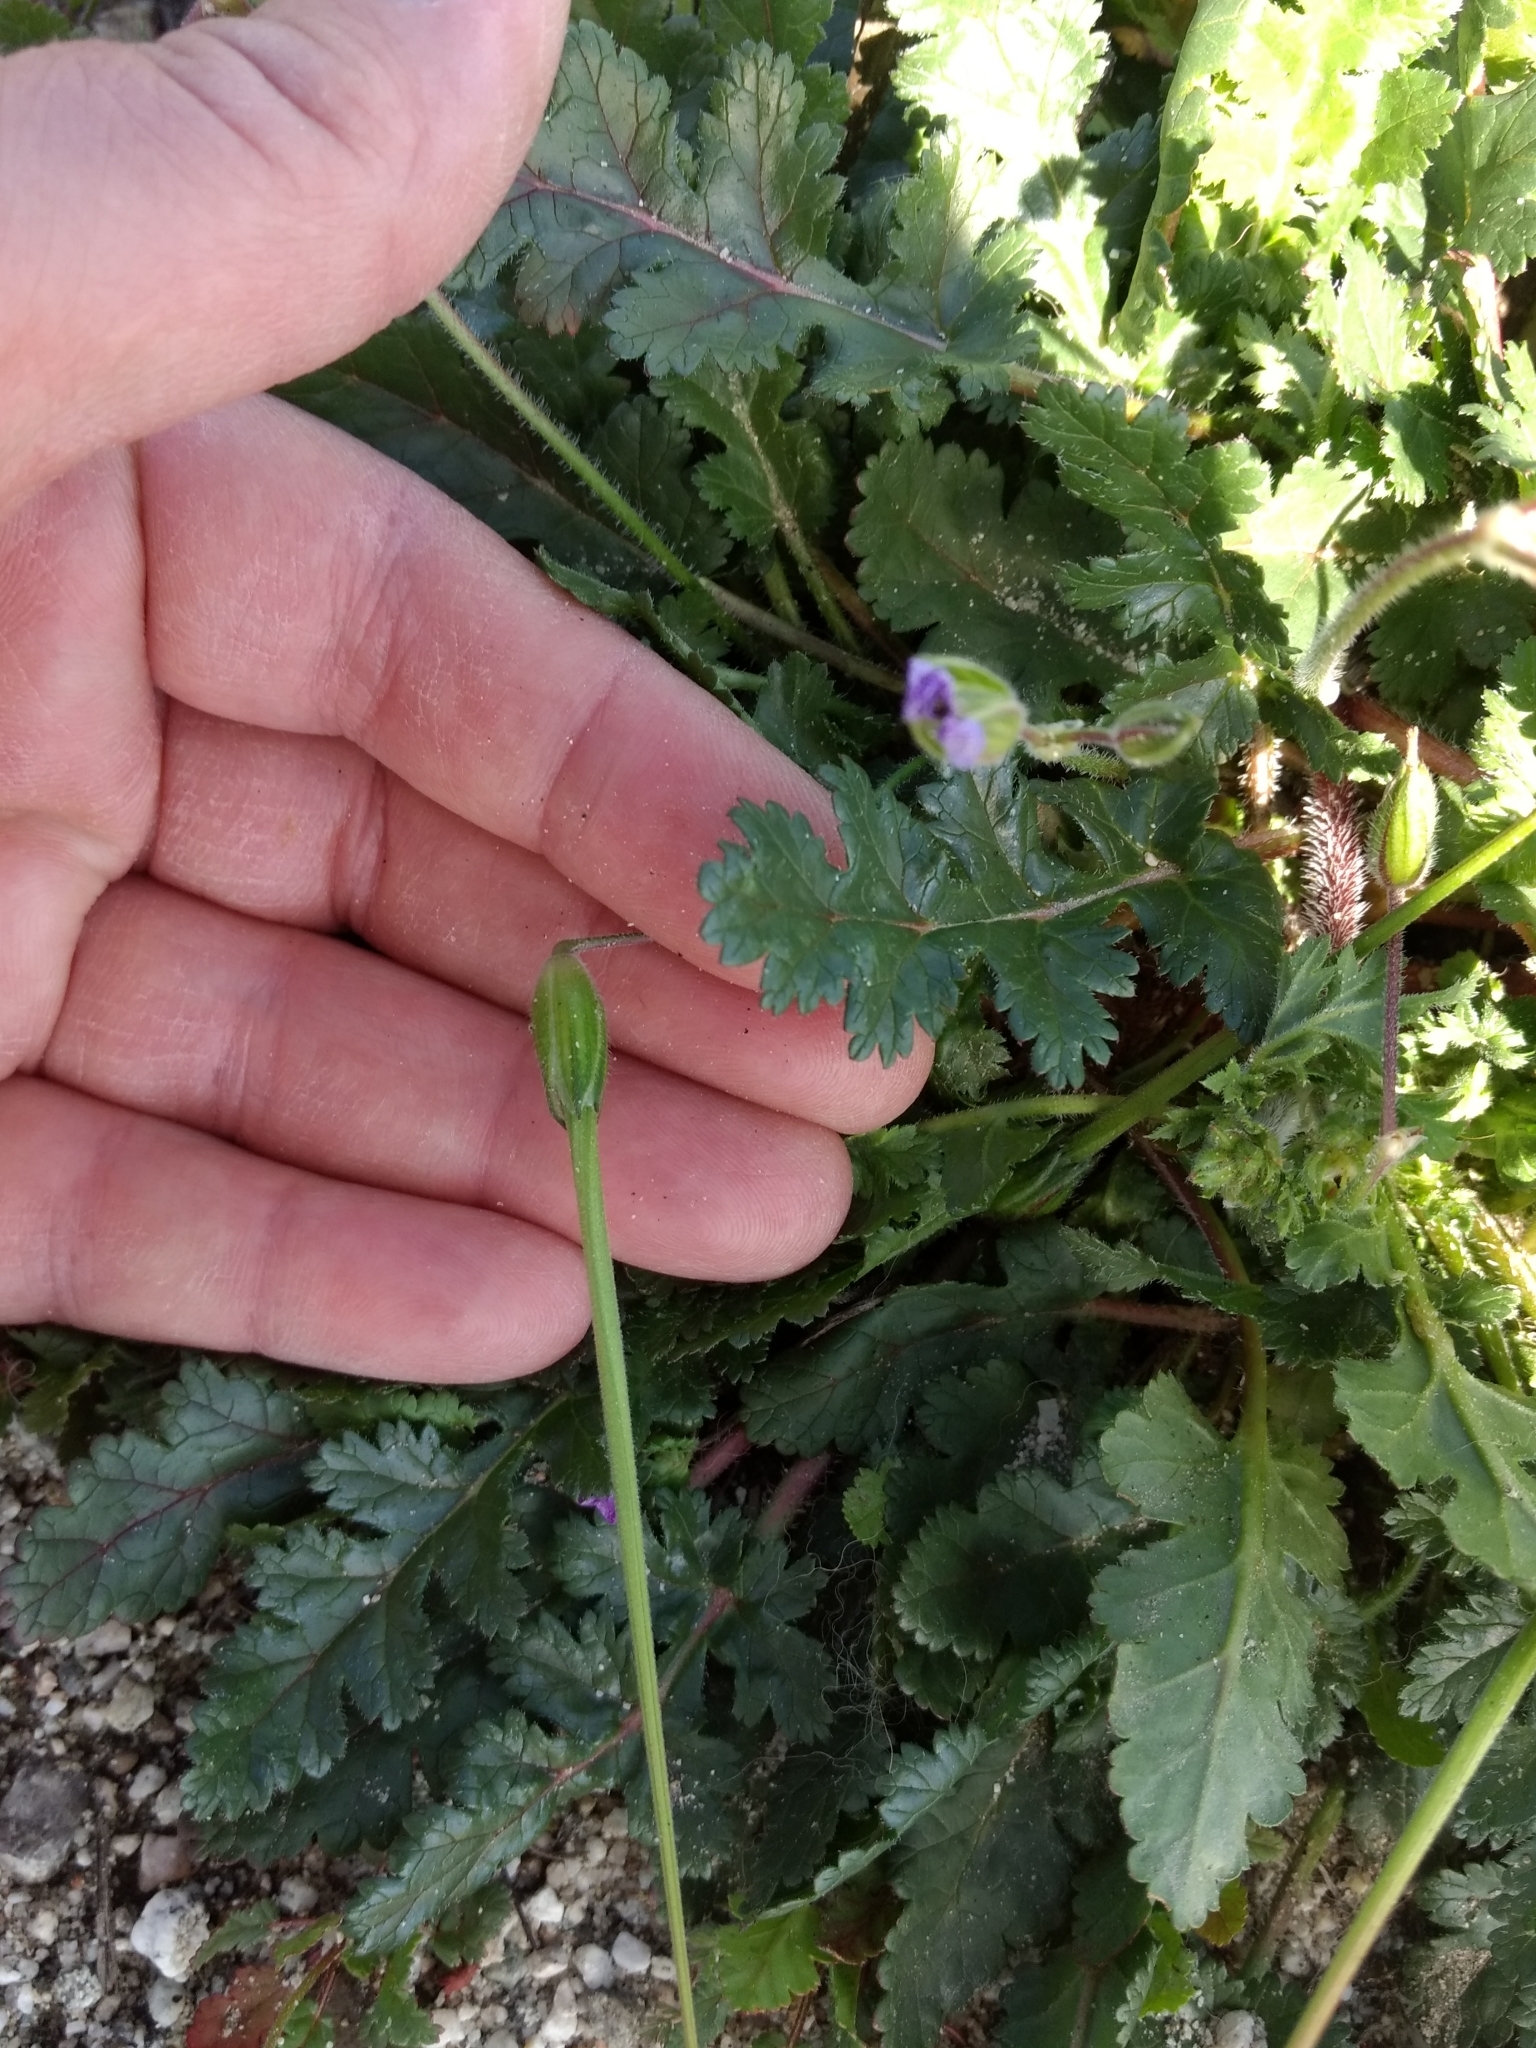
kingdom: Plantae
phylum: Tracheophyta
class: Magnoliopsida
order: Geraniales
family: Geraniaceae
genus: Erodium
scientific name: Erodium botrys
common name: Mediterranean stork's-bill
